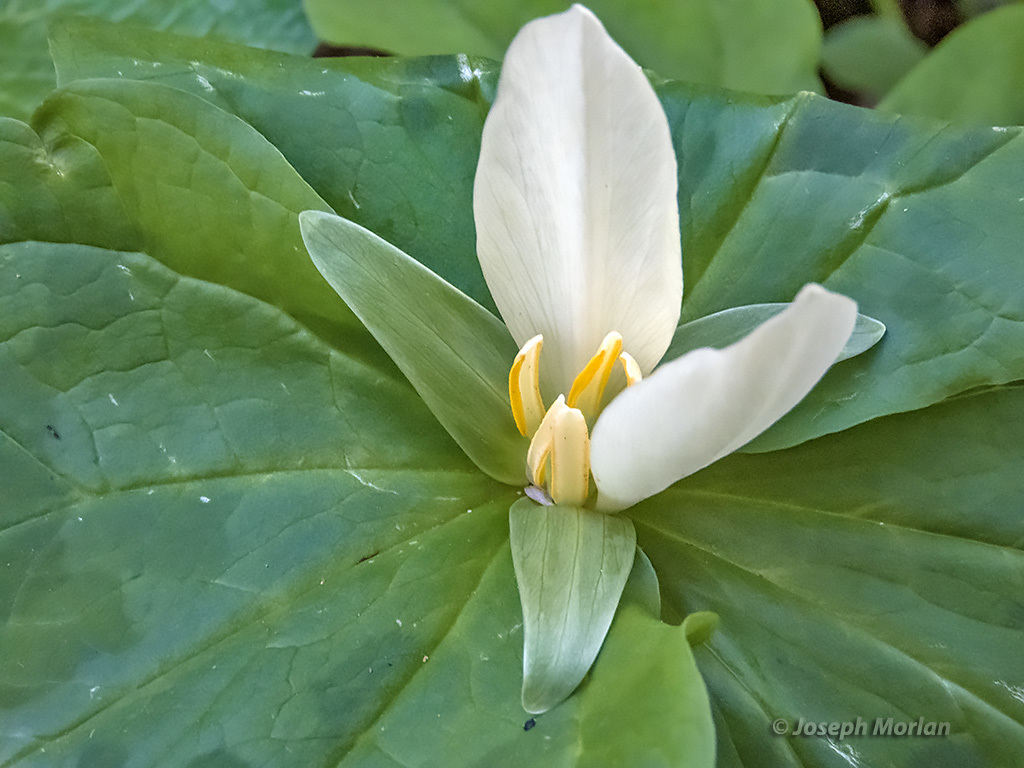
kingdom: Plantae
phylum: Tracheophyta
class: Liliopsida
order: Liliales
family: Melanthiaceae
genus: Trillium
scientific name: Trillium albidum
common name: Freeman's trillium
